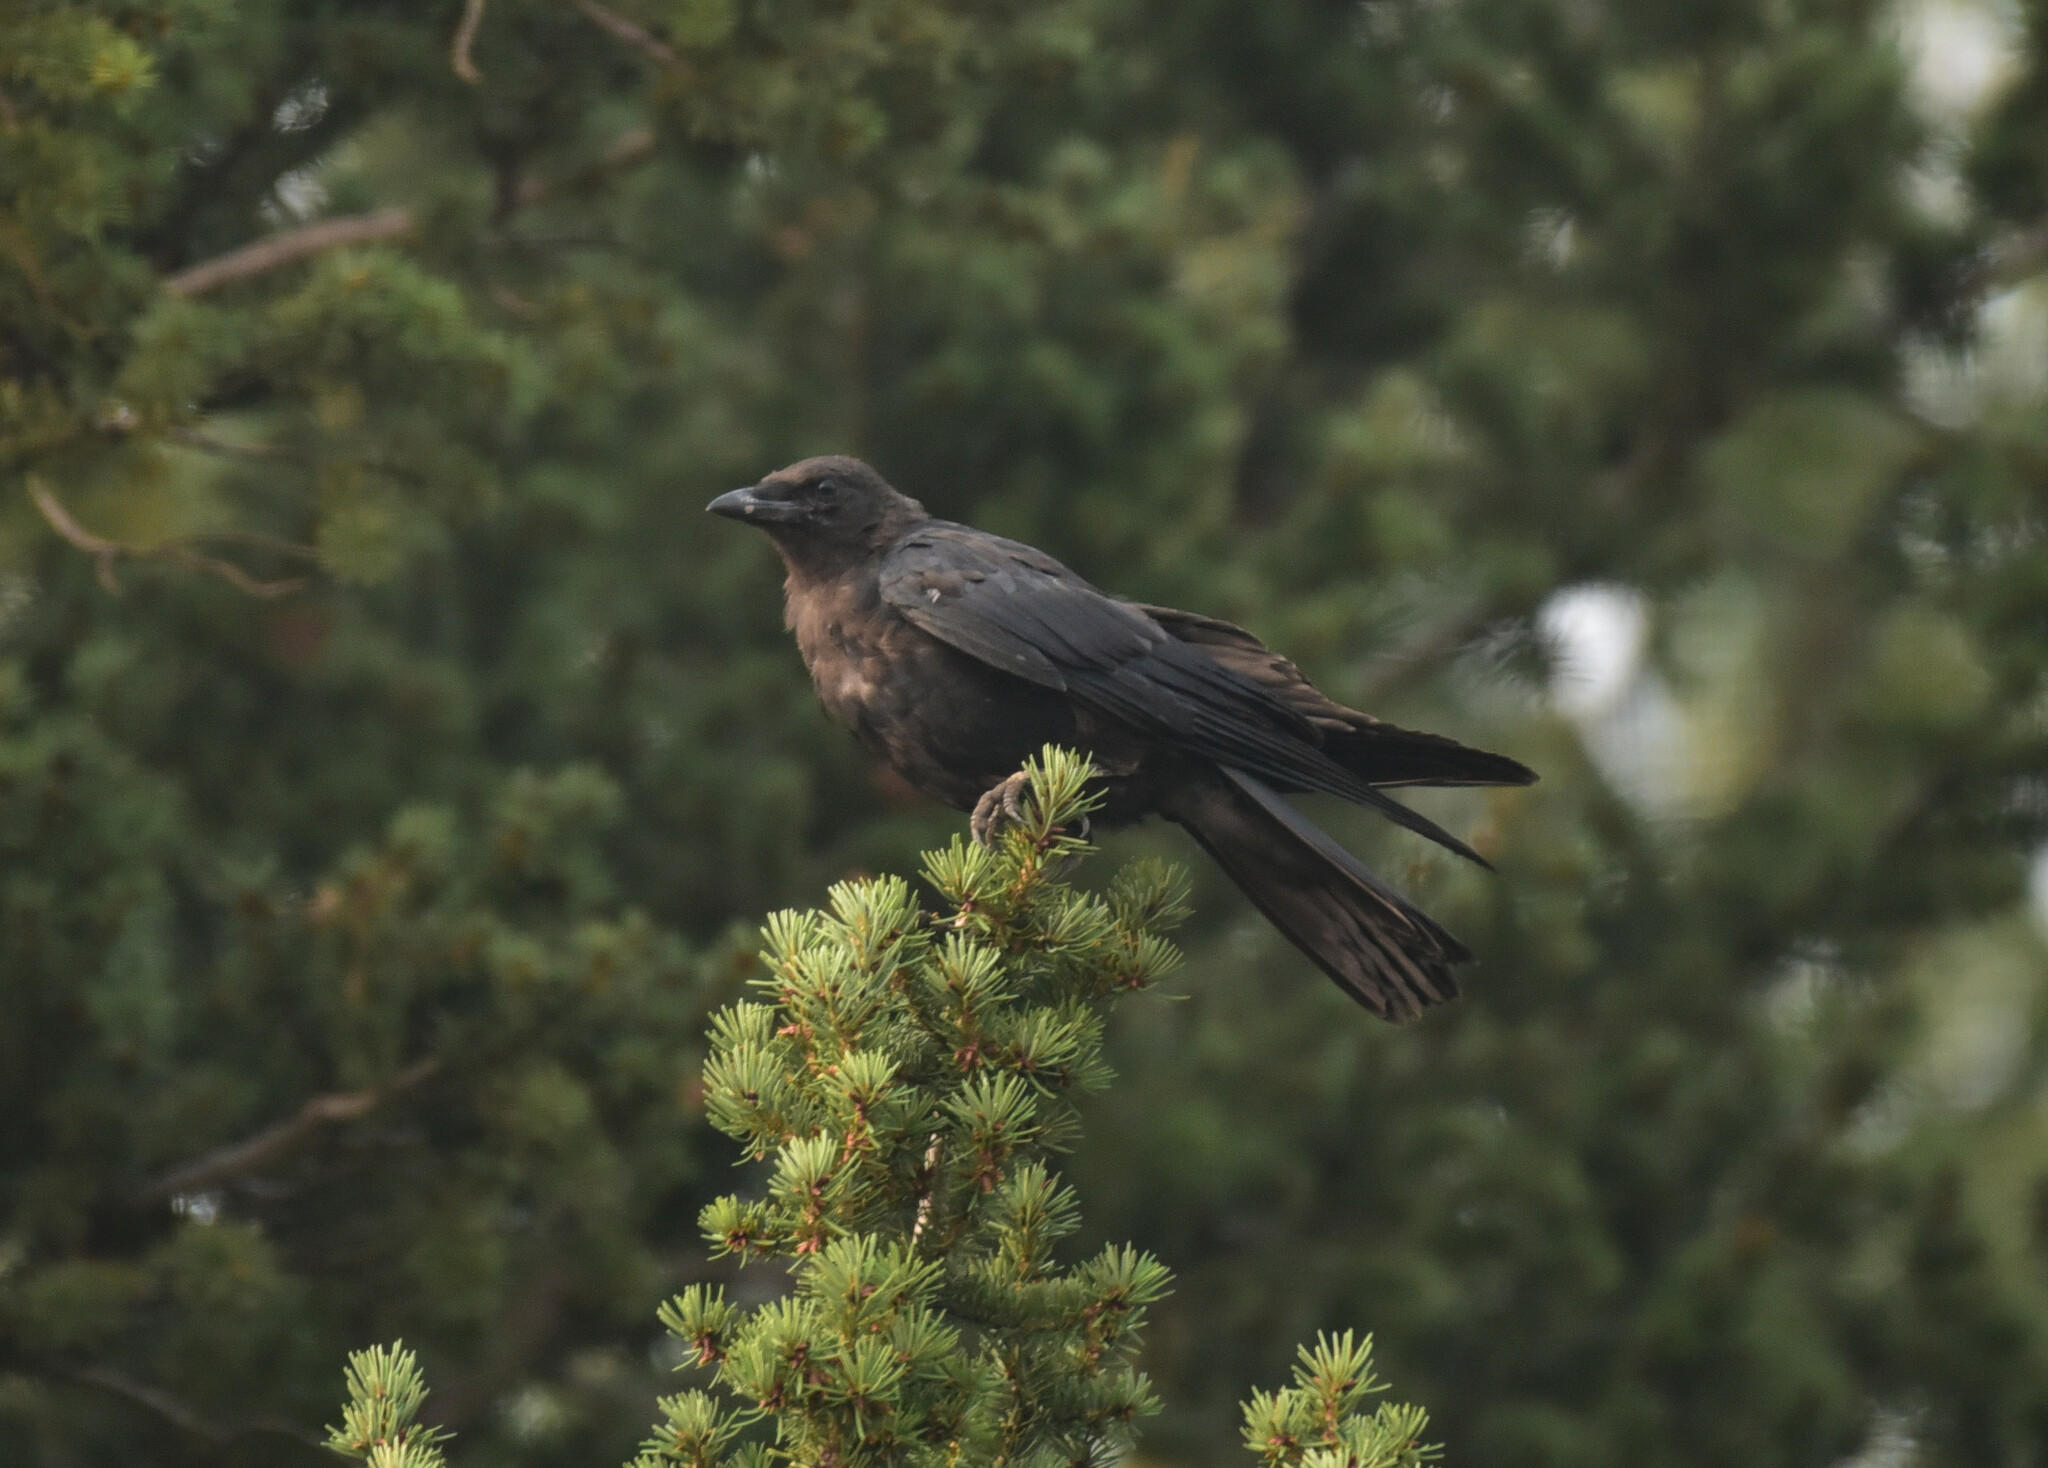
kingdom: Animalia
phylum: Chordata
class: Aves
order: Passeriformes
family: Corvidae
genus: Corvus
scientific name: Corvus brachyrhynchos
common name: American crow
